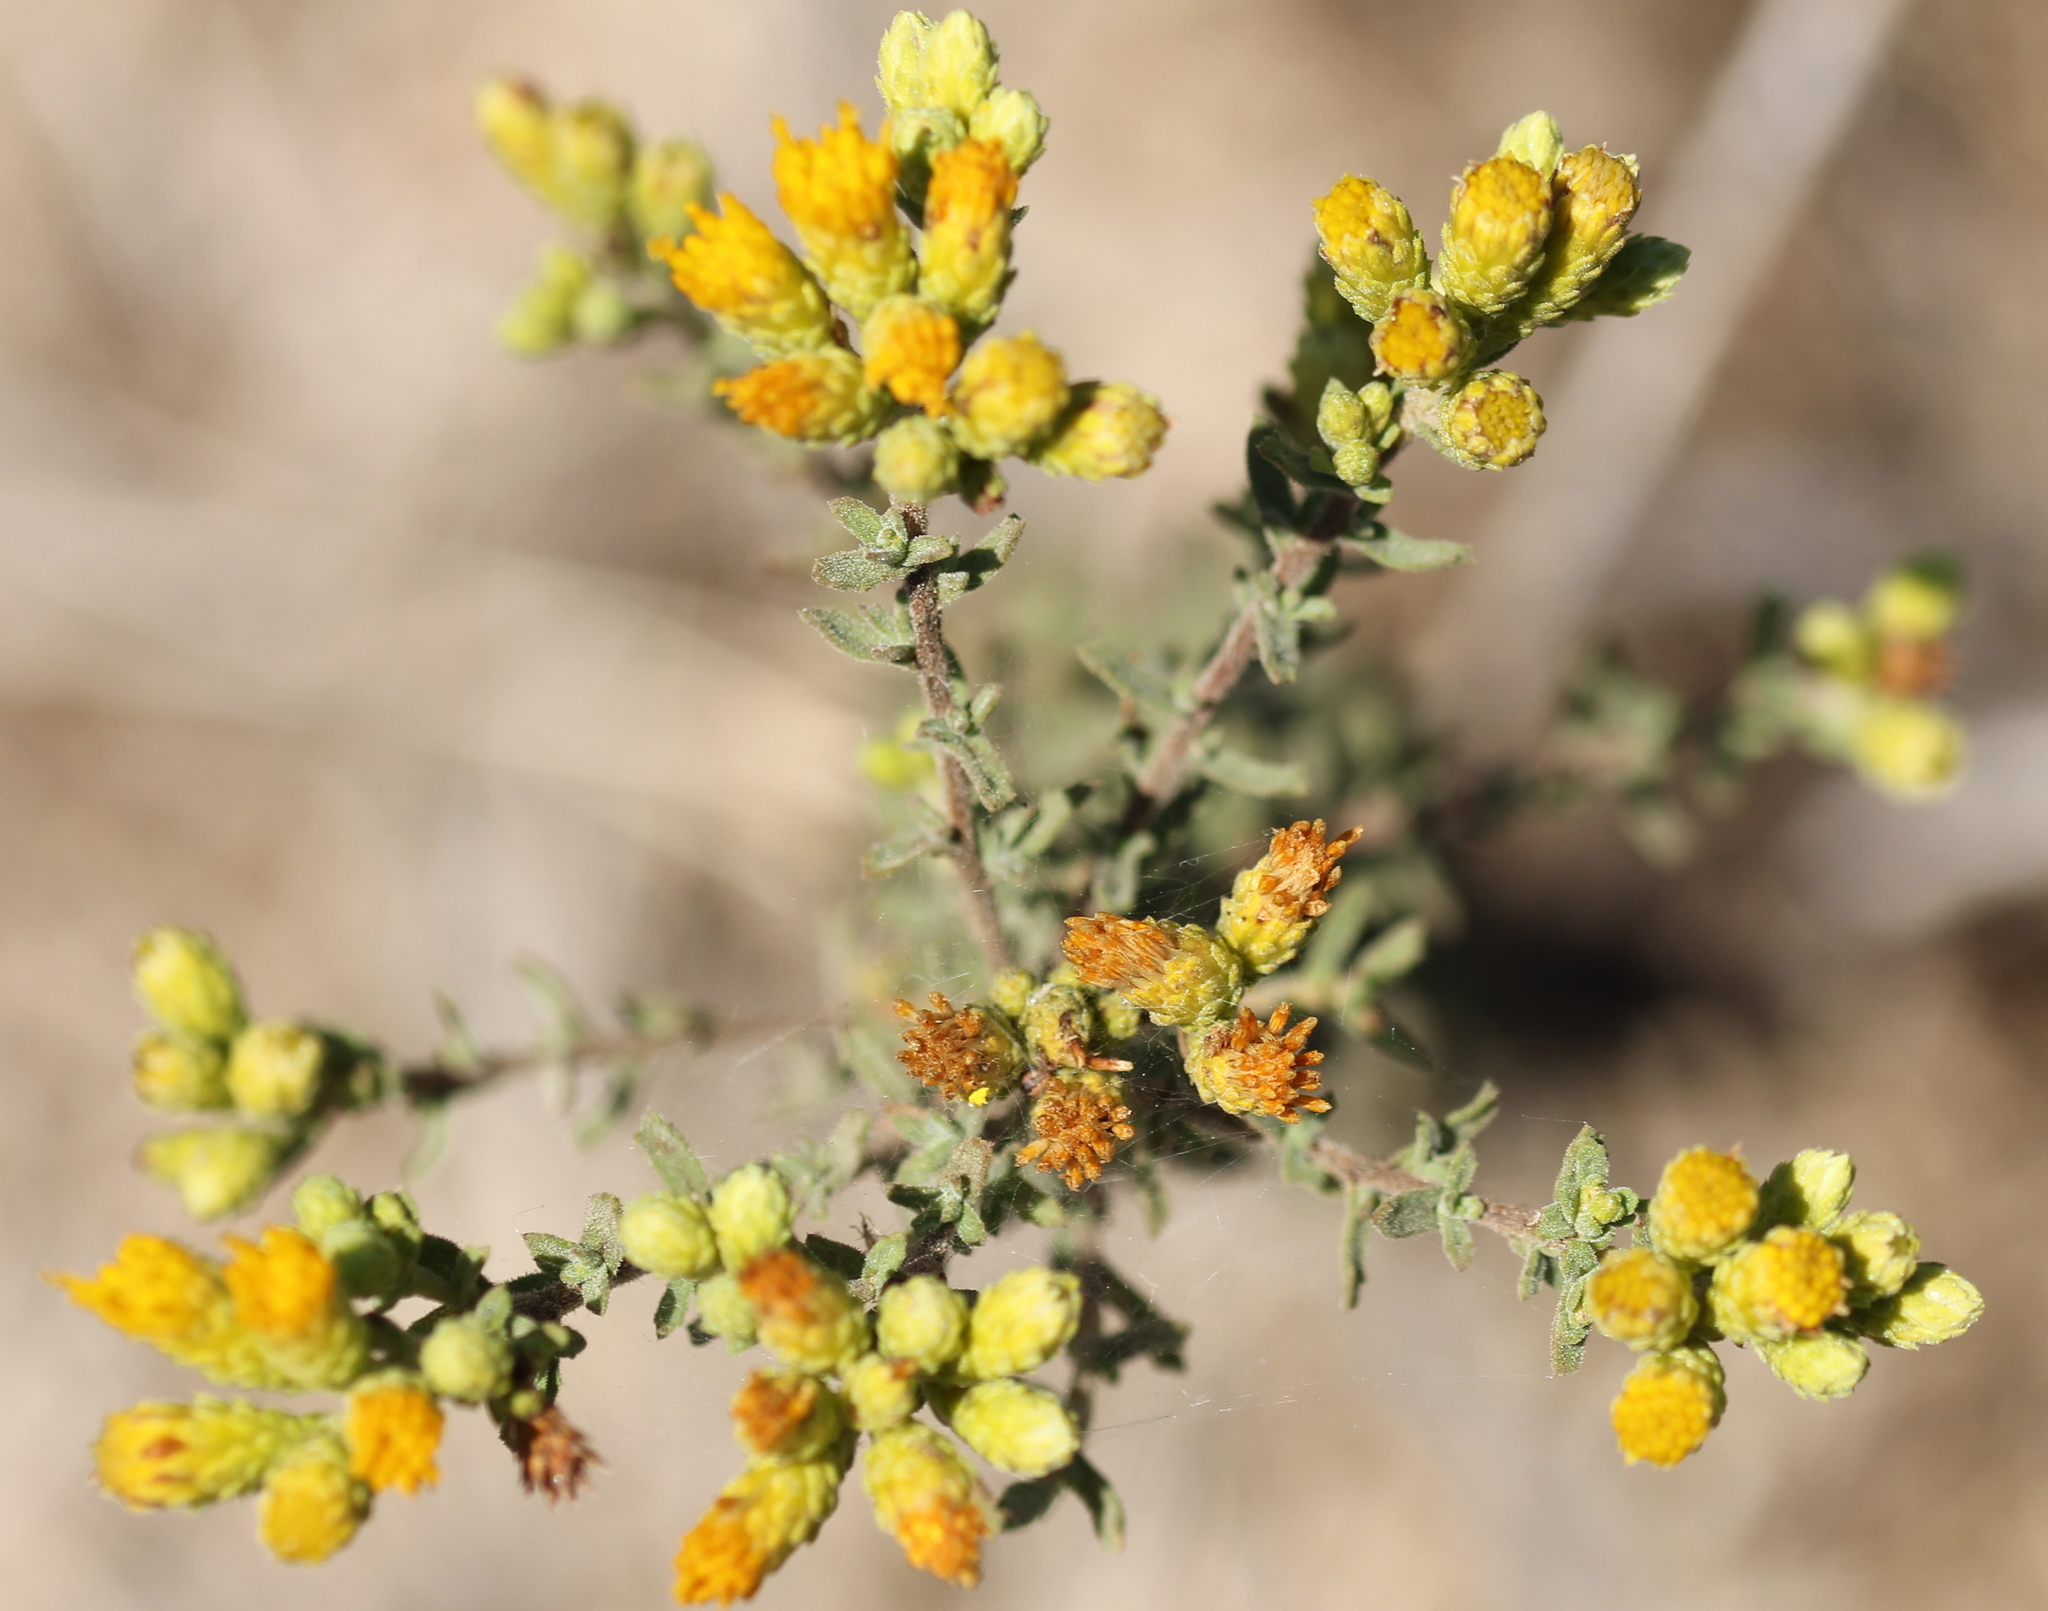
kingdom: Plantae
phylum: Tracheophyta
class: Magnoliopsida
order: Asterales
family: Asteraceae
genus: Isocoma
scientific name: Isocoma menziesii
